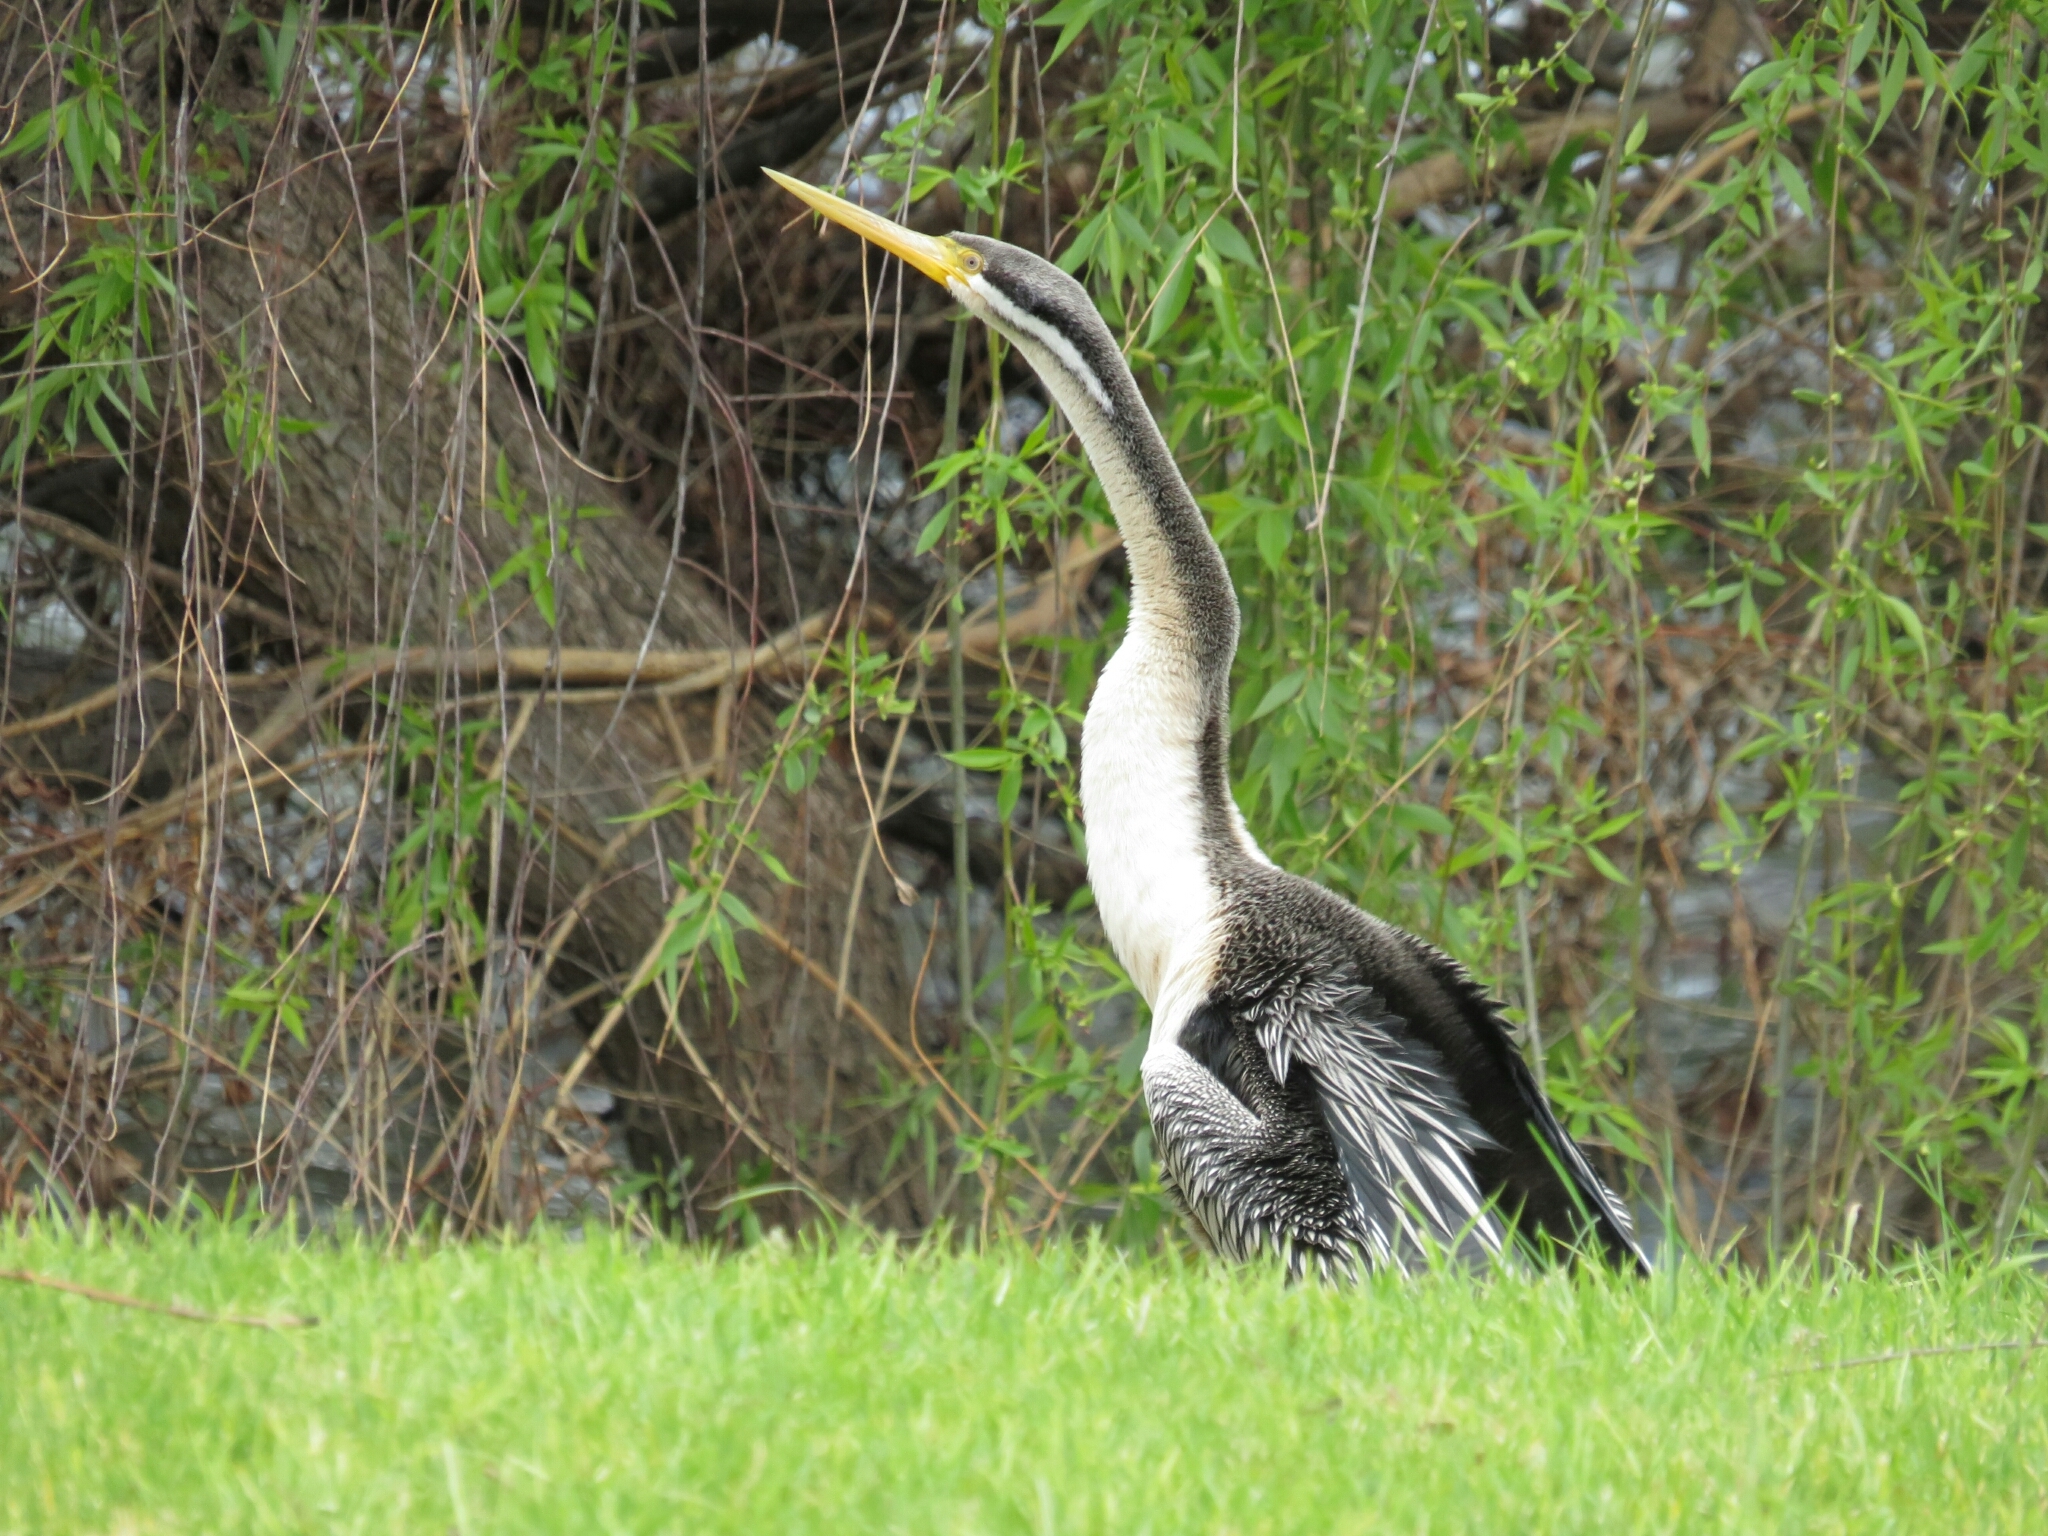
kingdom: Animalia
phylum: Chordata
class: Aves
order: Suliformes
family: Anhingidae
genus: Anhinga
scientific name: Anhinga novaehollandiae
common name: Australasian darter
